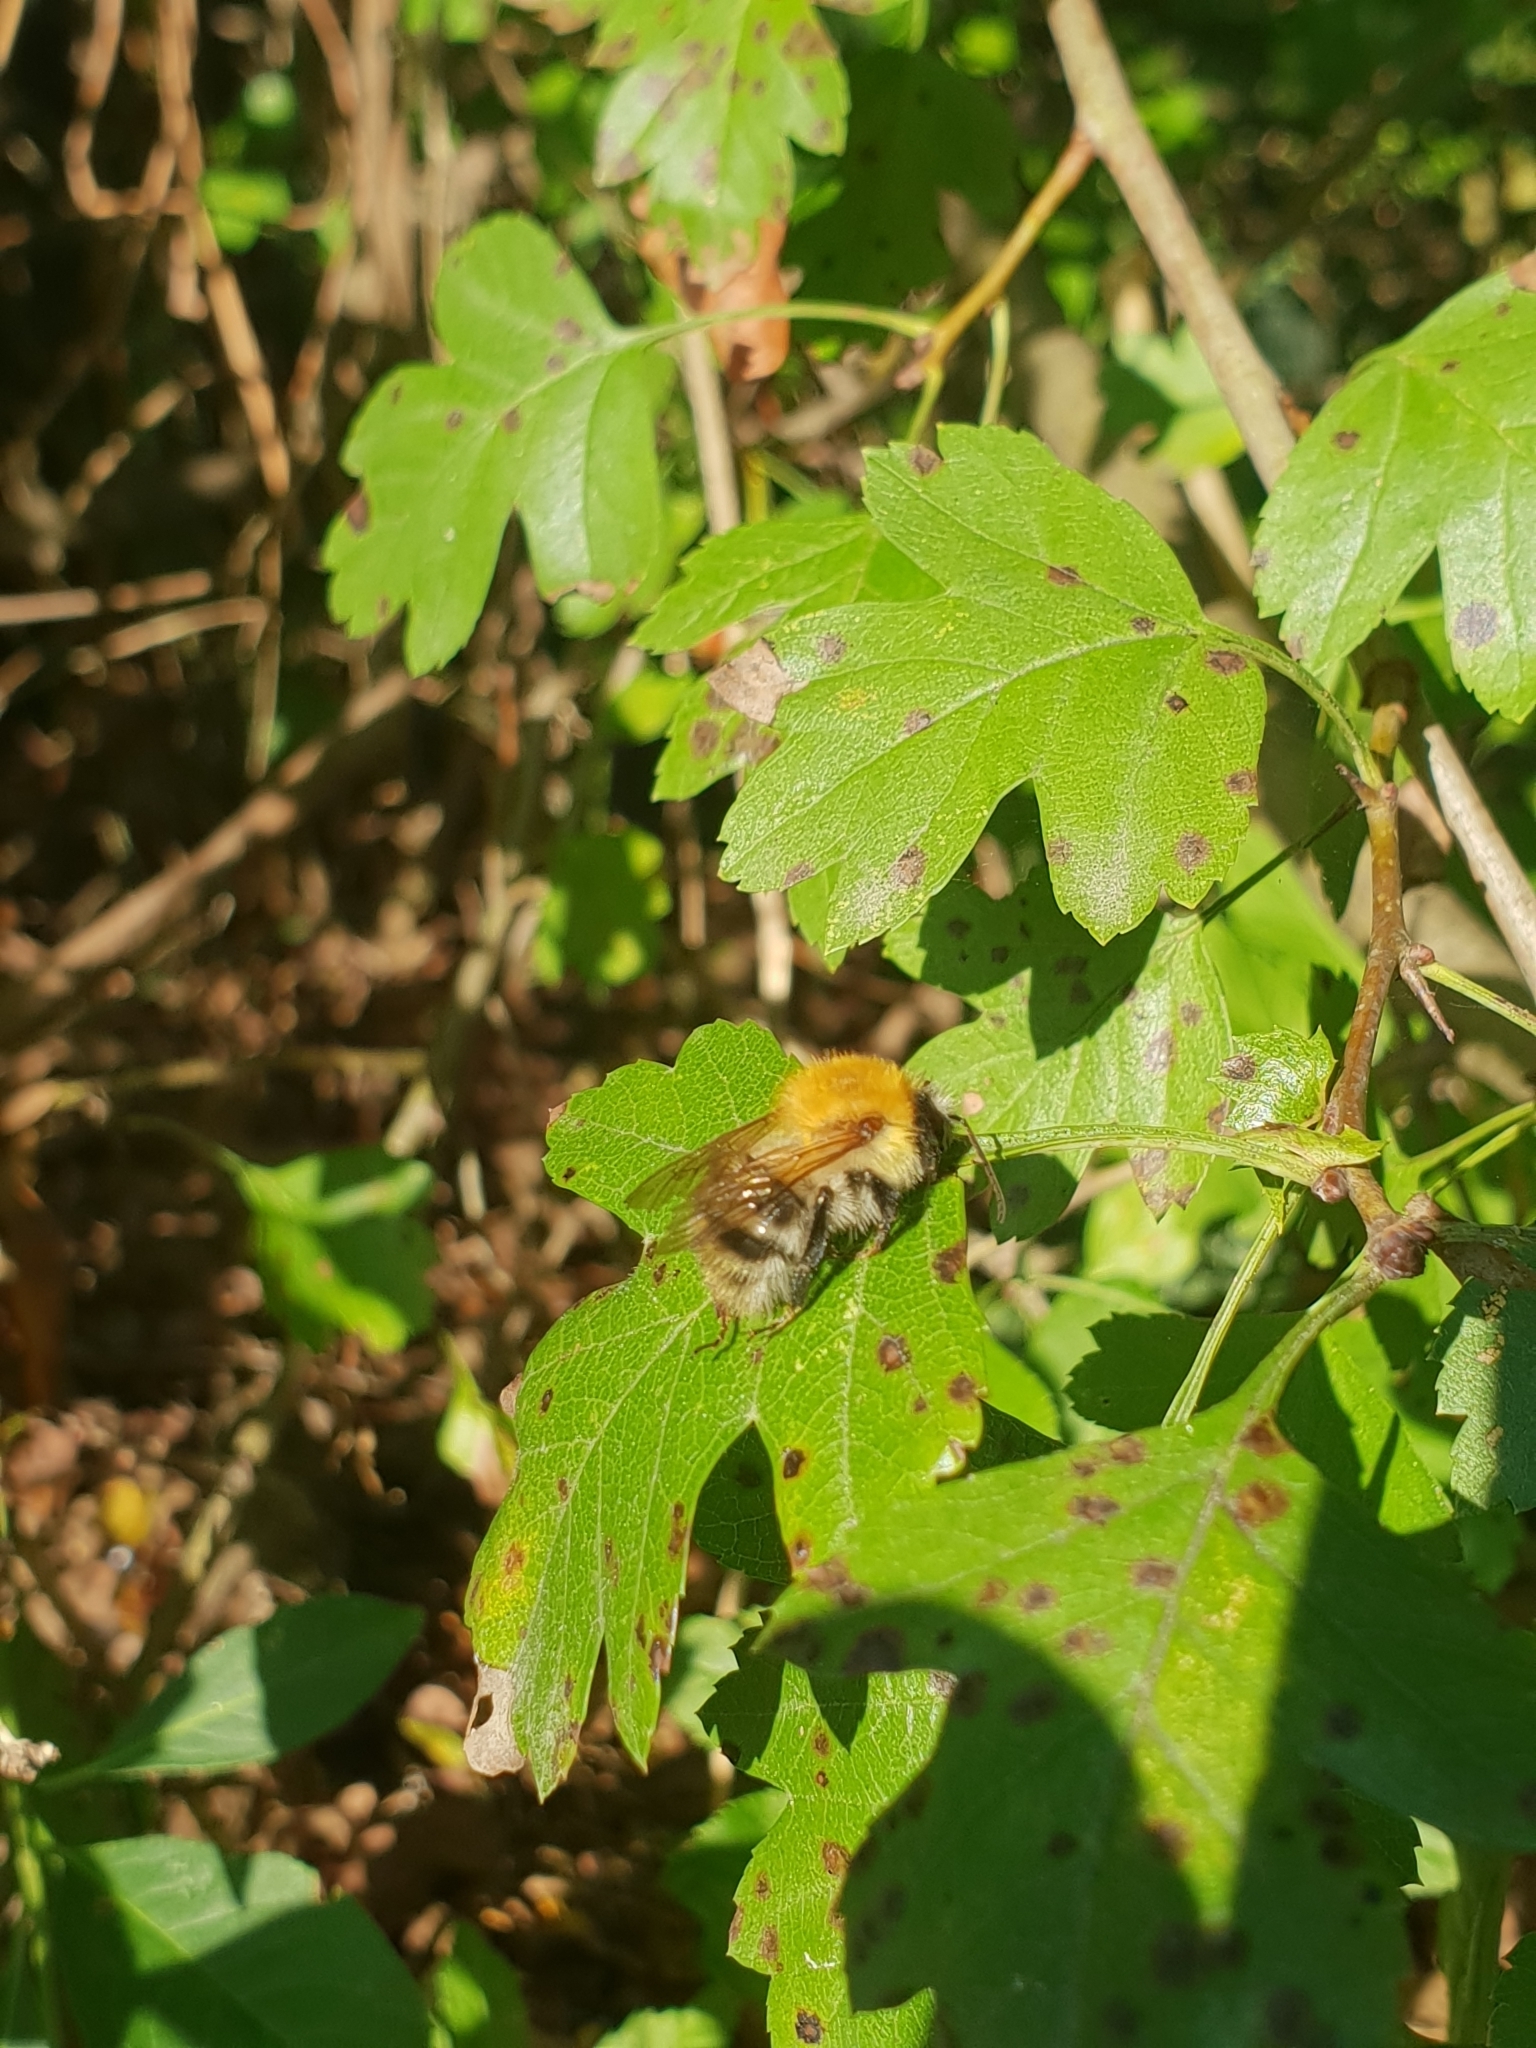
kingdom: Animalia
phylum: Arthropoda
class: Insecta
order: Hymenoptera
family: Apidae
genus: Bombus
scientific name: Bombus pascuorum
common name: Common carder bee
